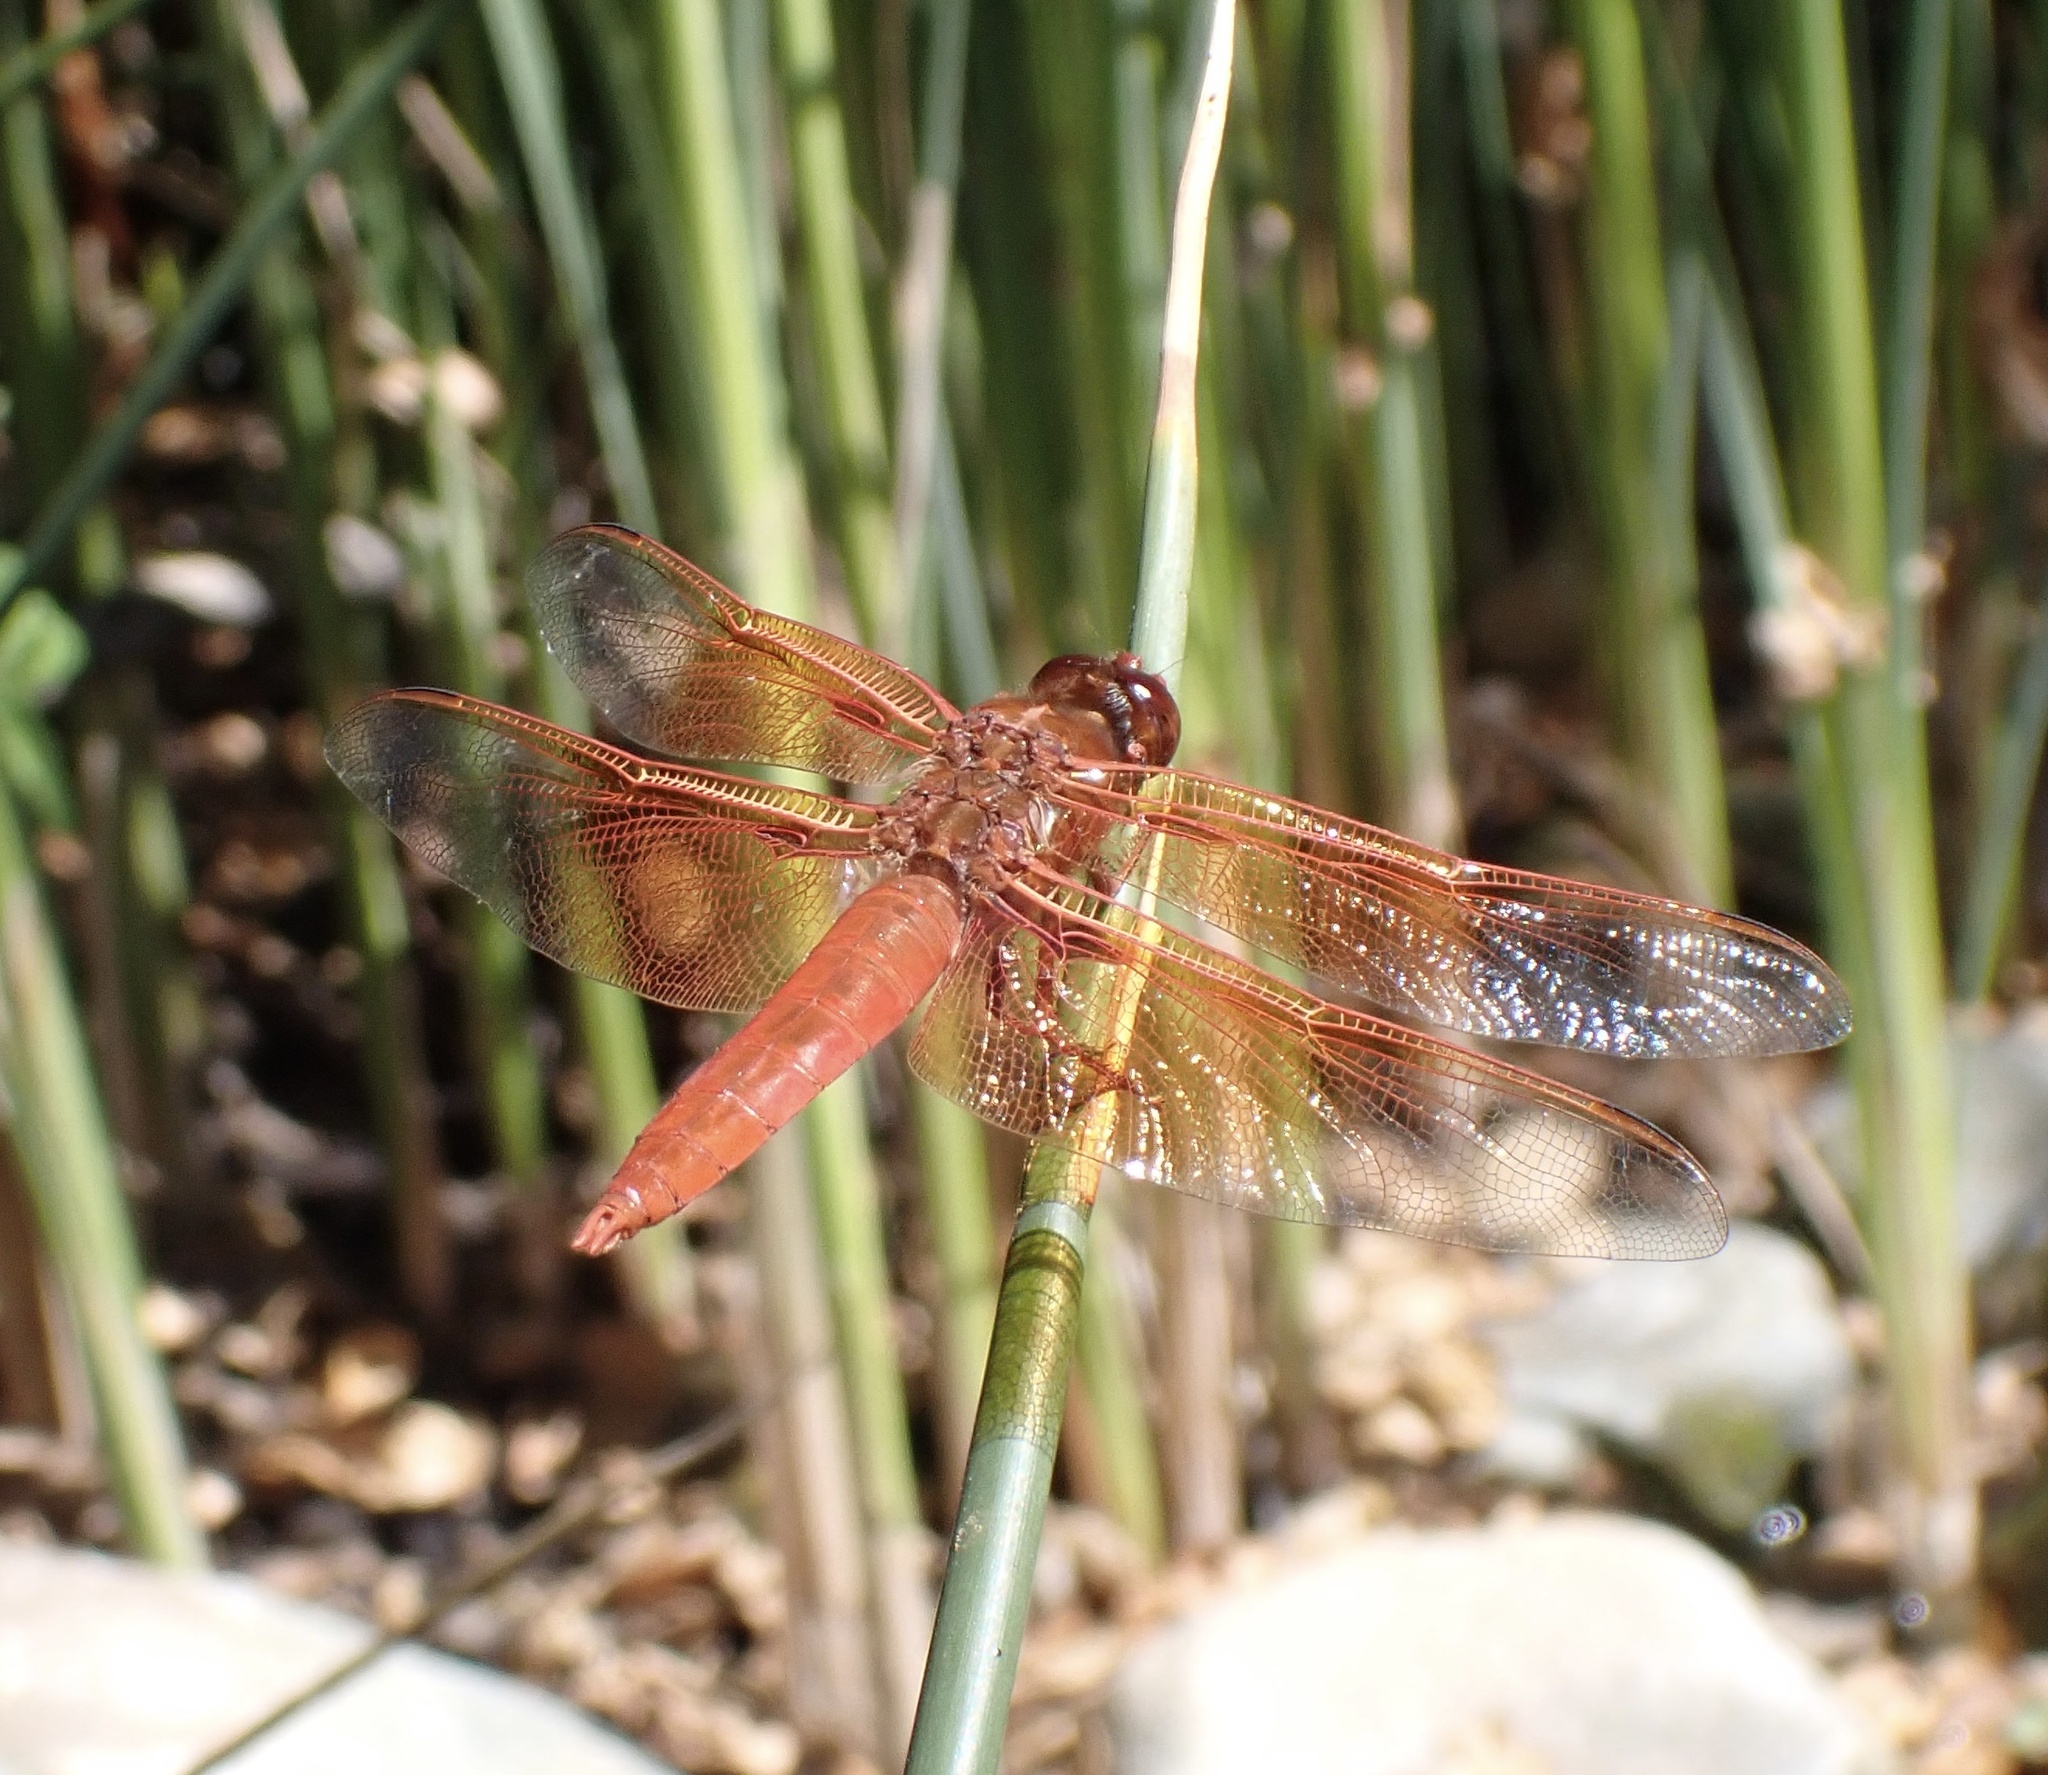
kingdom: Animalia
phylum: Arthropoda
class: Insecta
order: Odonata
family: Libellulidae
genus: Libellula
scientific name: Libellula saturata
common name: Flame skimmer
